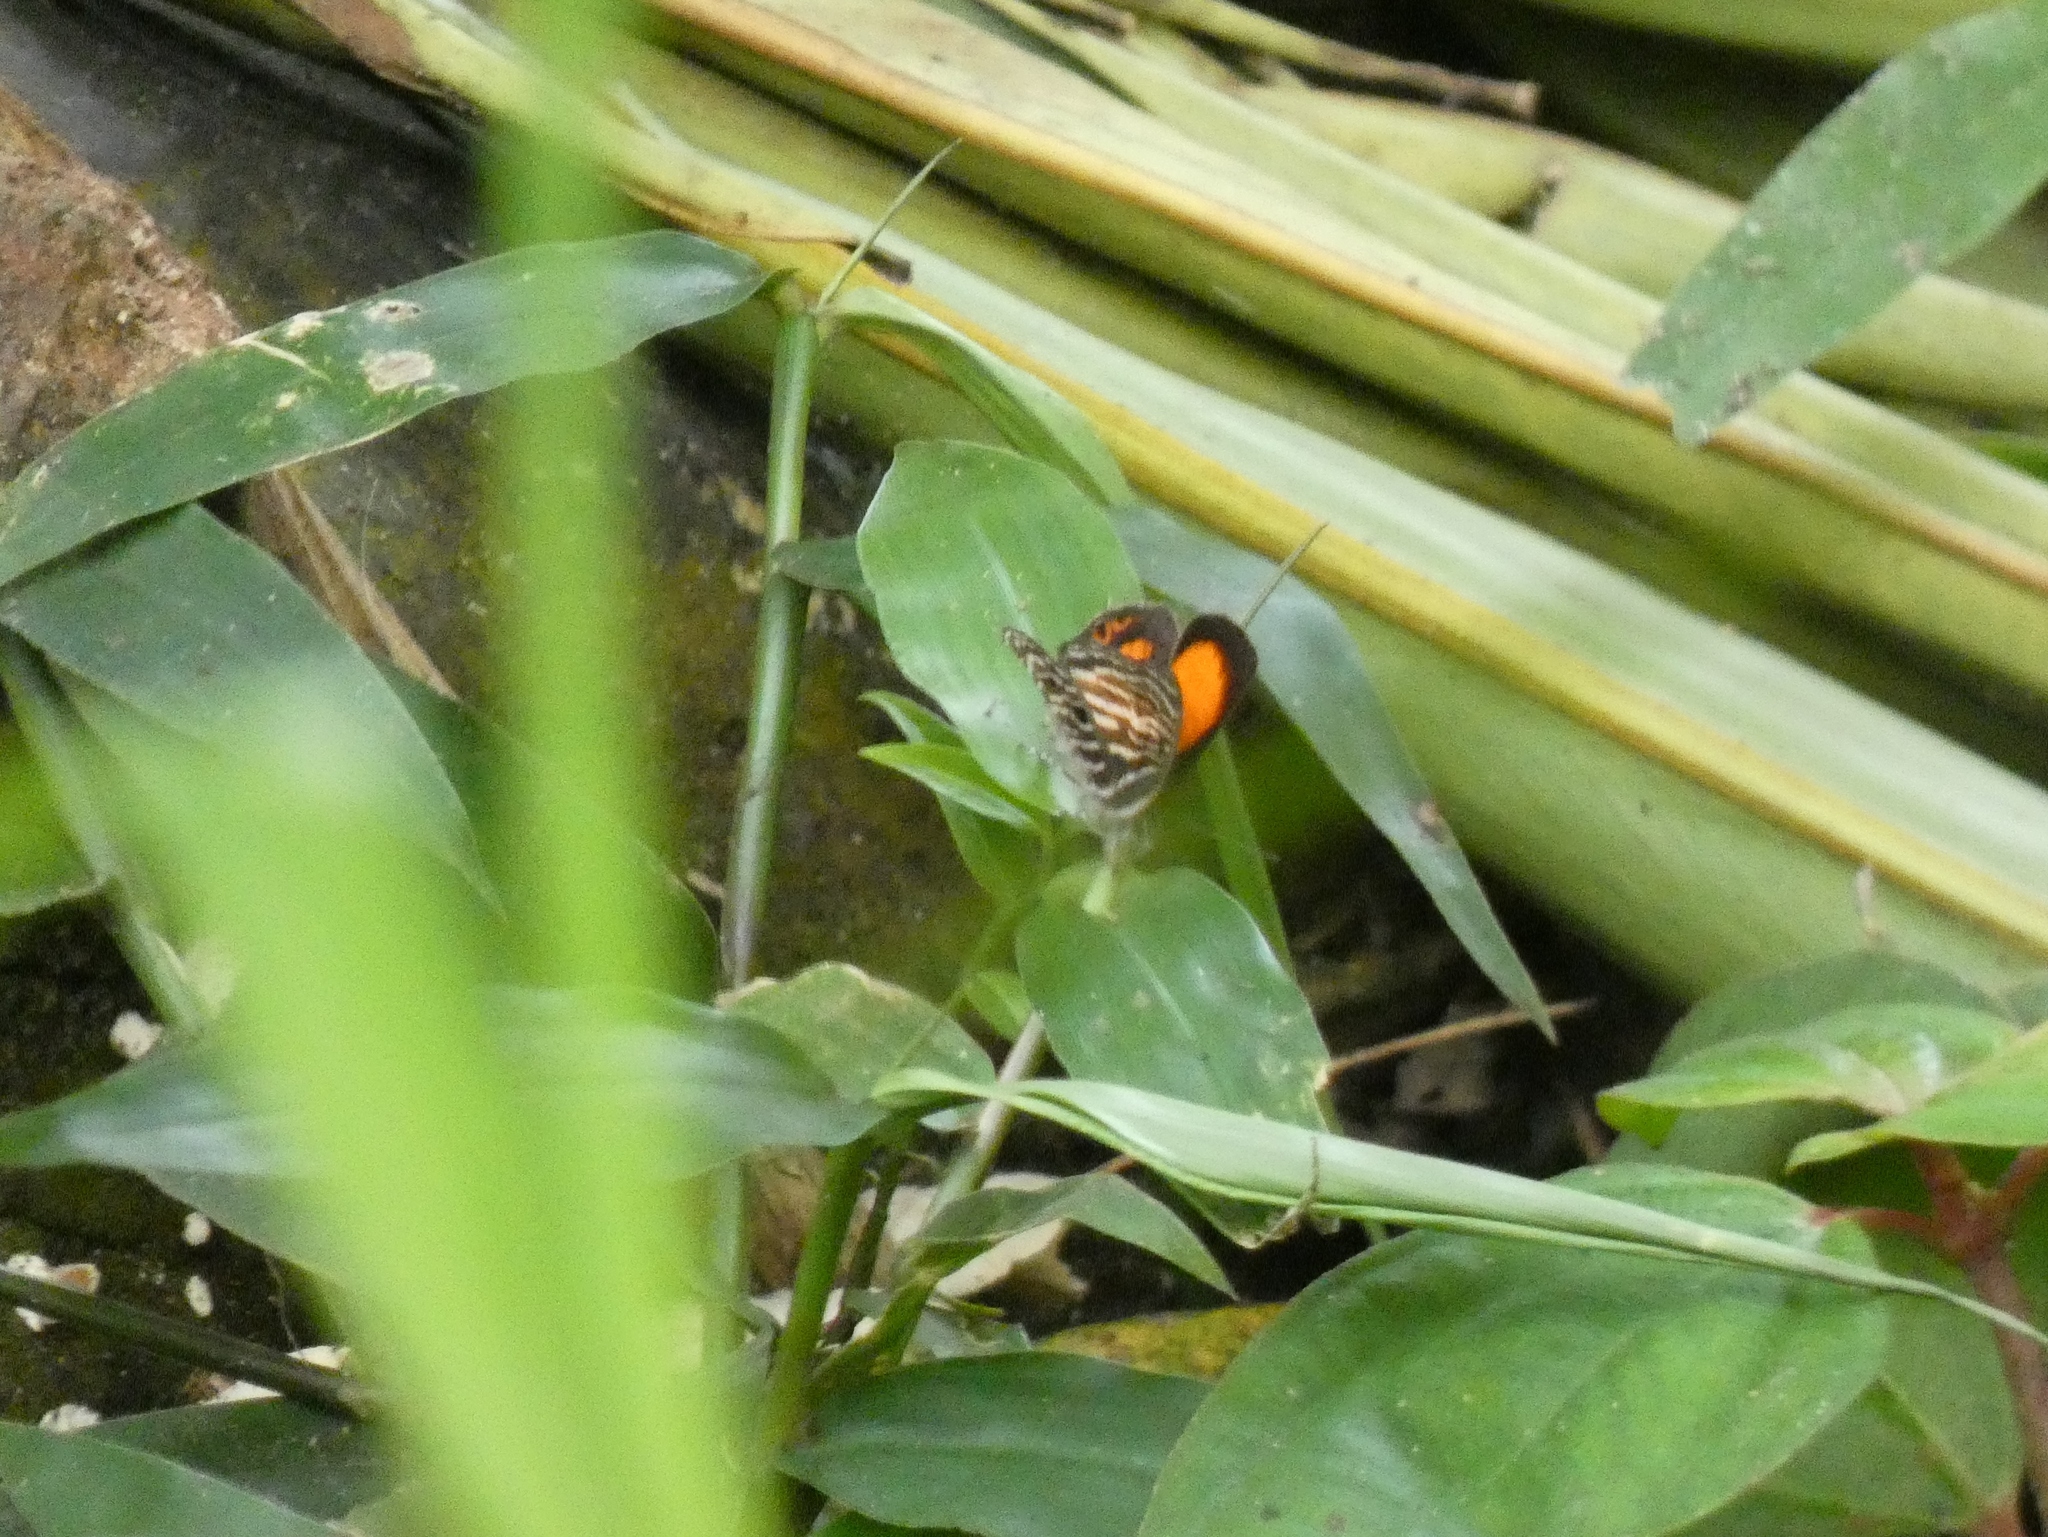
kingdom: Animalia
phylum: Arthropoda
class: Insecta
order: Lepidoptera
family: Lycaenidae
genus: Neurellipes
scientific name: Neurellipes
